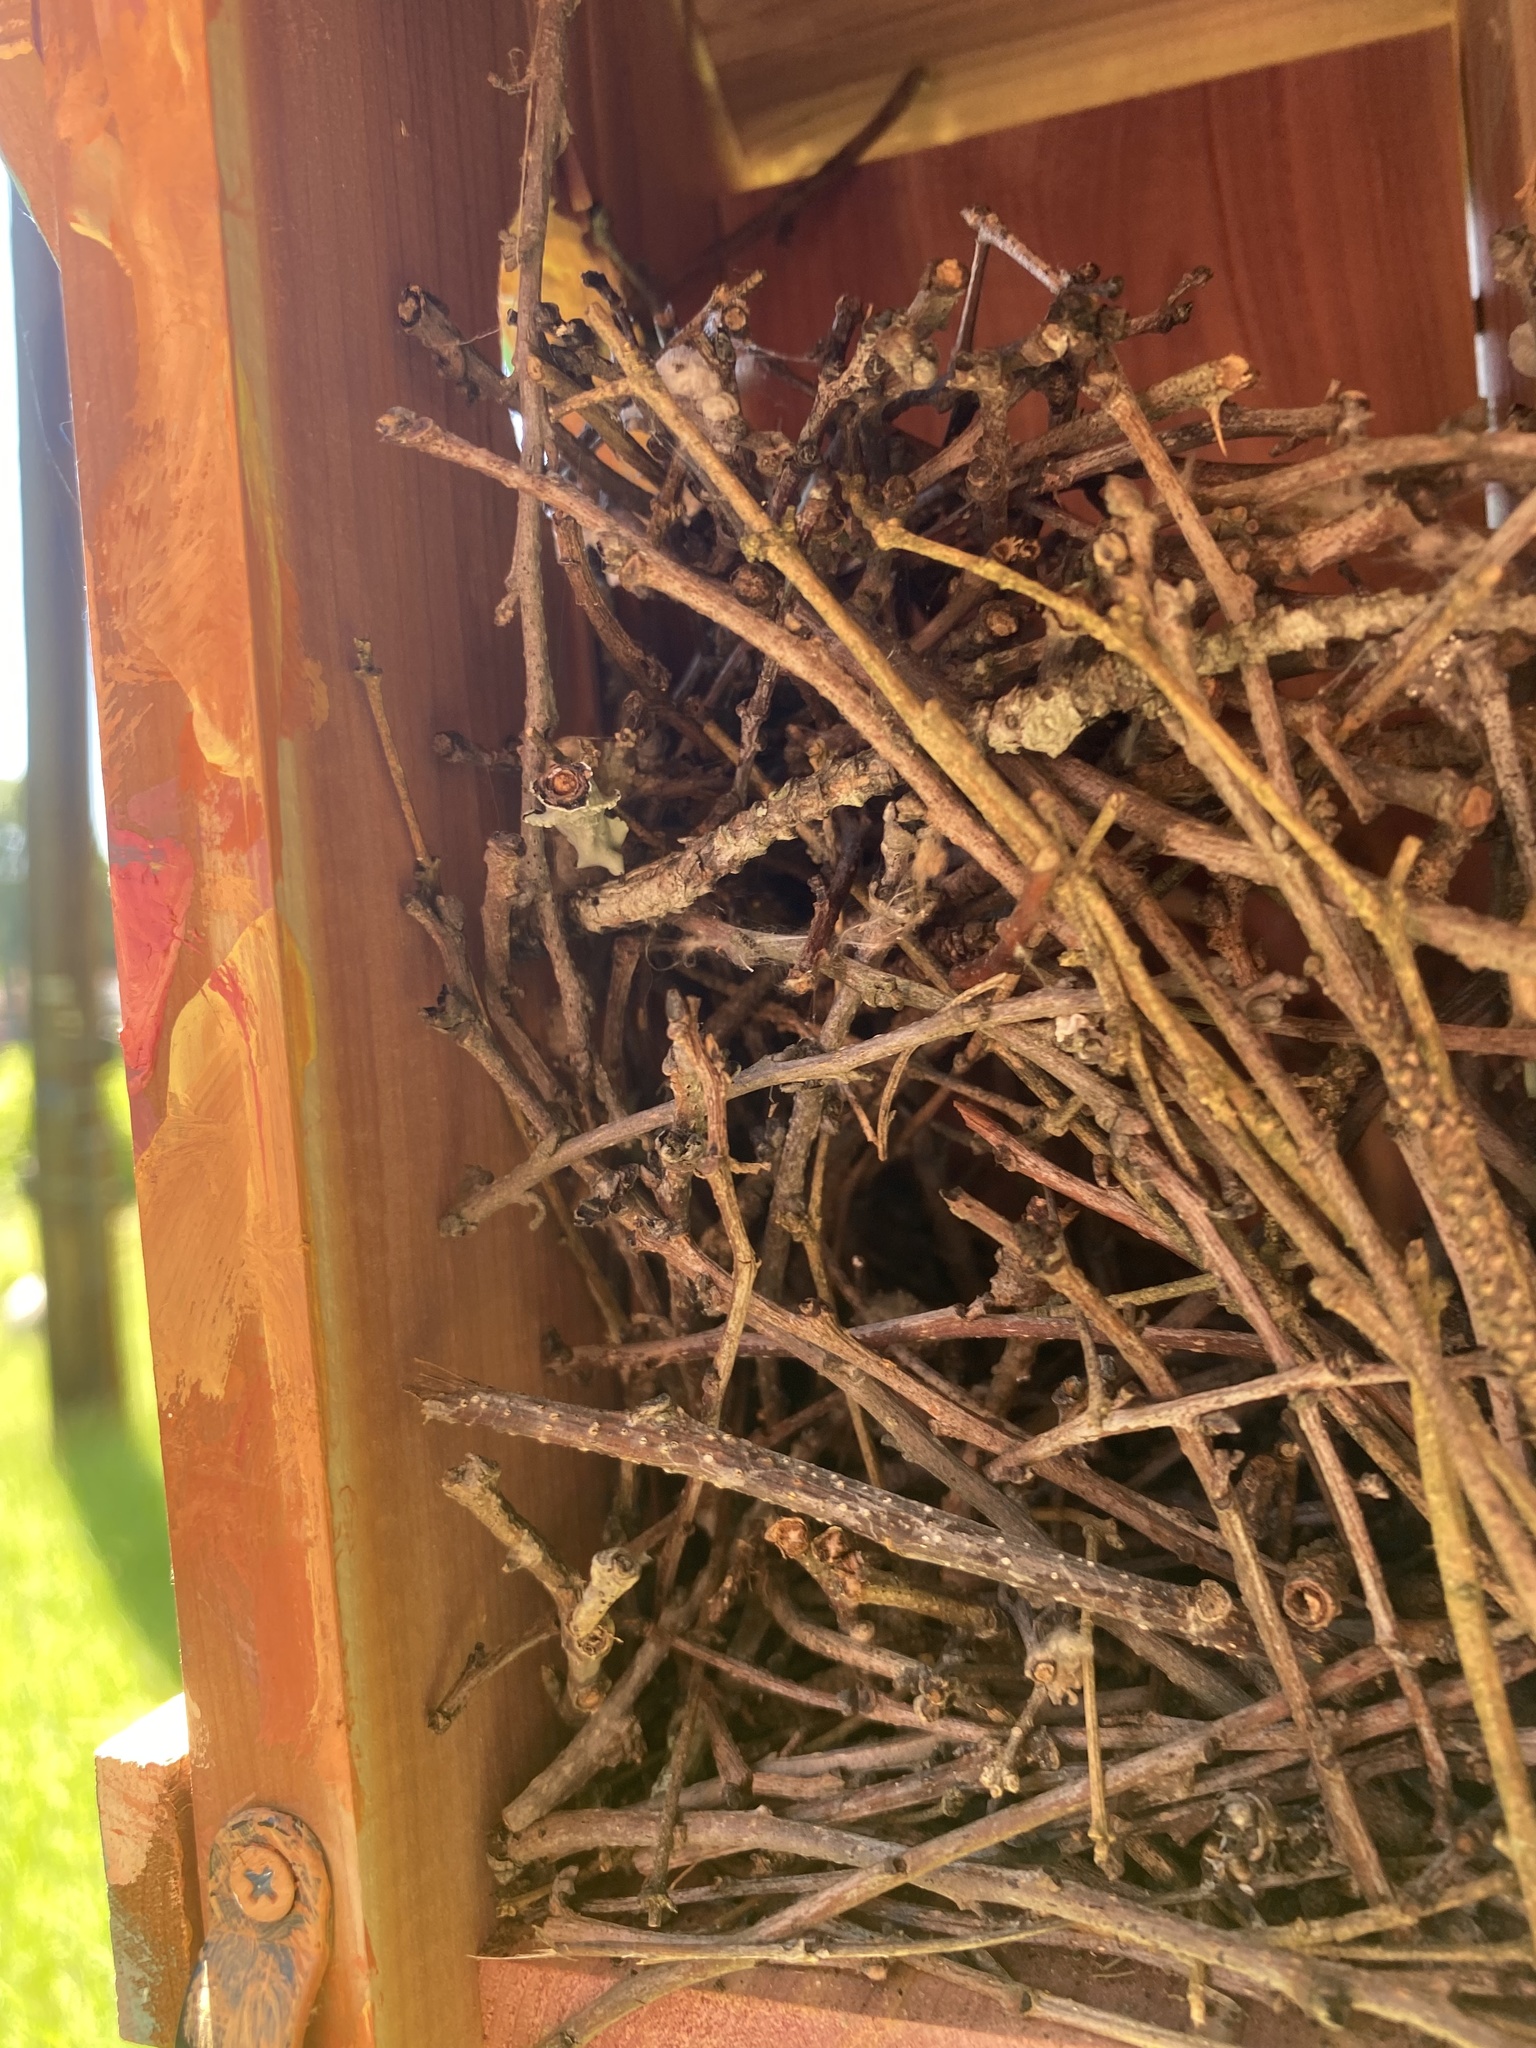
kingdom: Animalia
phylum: Chordata
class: Aves
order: Passeriformes
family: Troglodytidae
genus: Troglodytes
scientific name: Troglodytes aedon
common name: House wren
